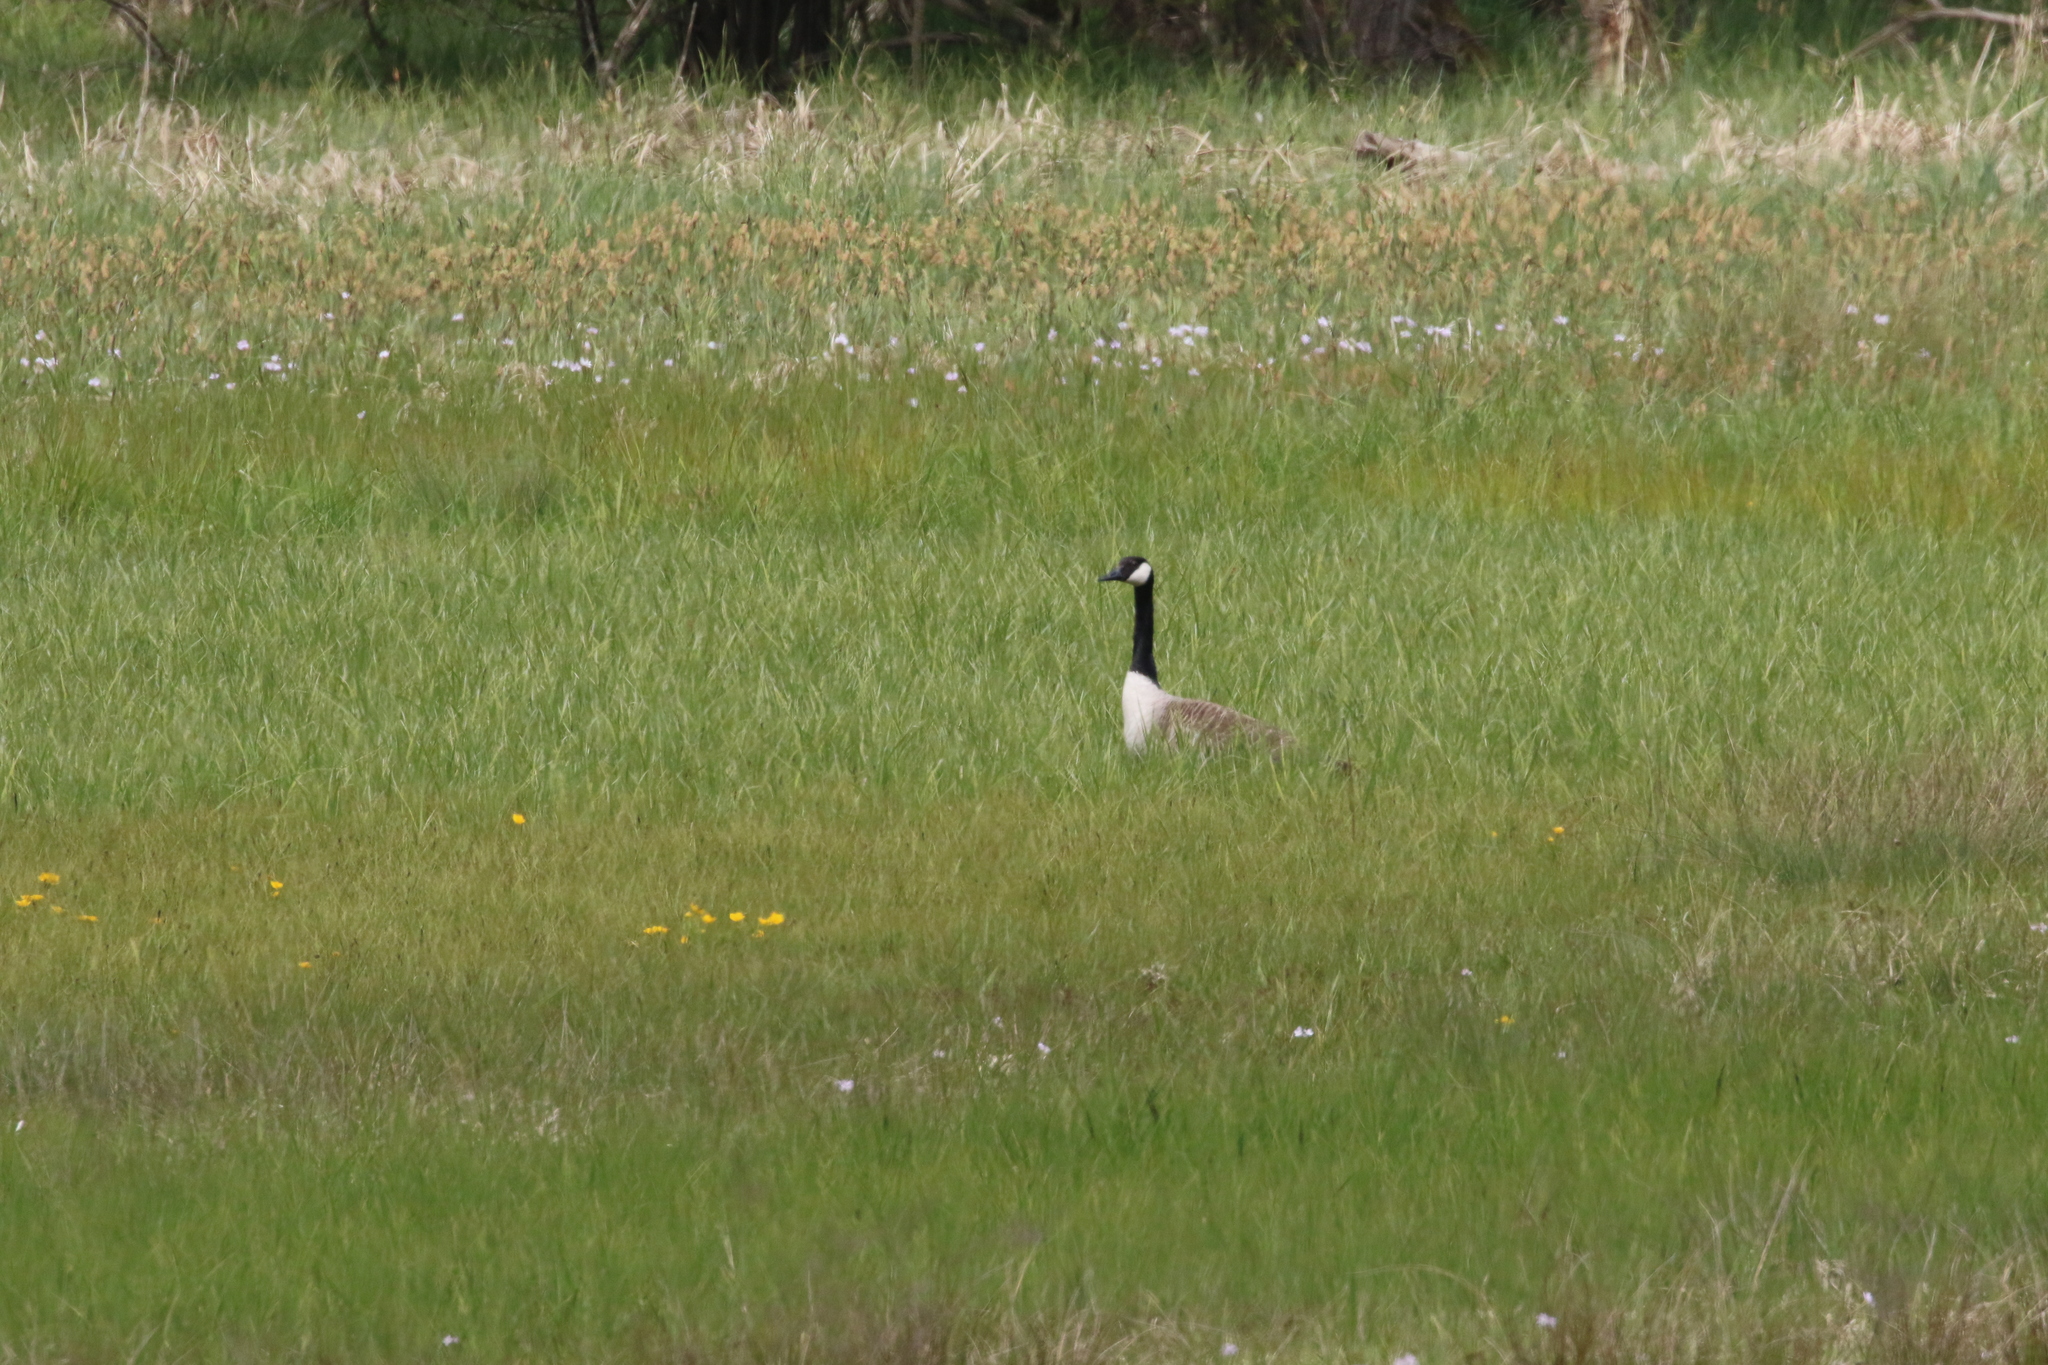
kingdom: Animalia
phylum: Chordata
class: Aves
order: Anseriformes
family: Anatidae
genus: Branta
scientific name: Branta canadensis
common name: Canada goose
